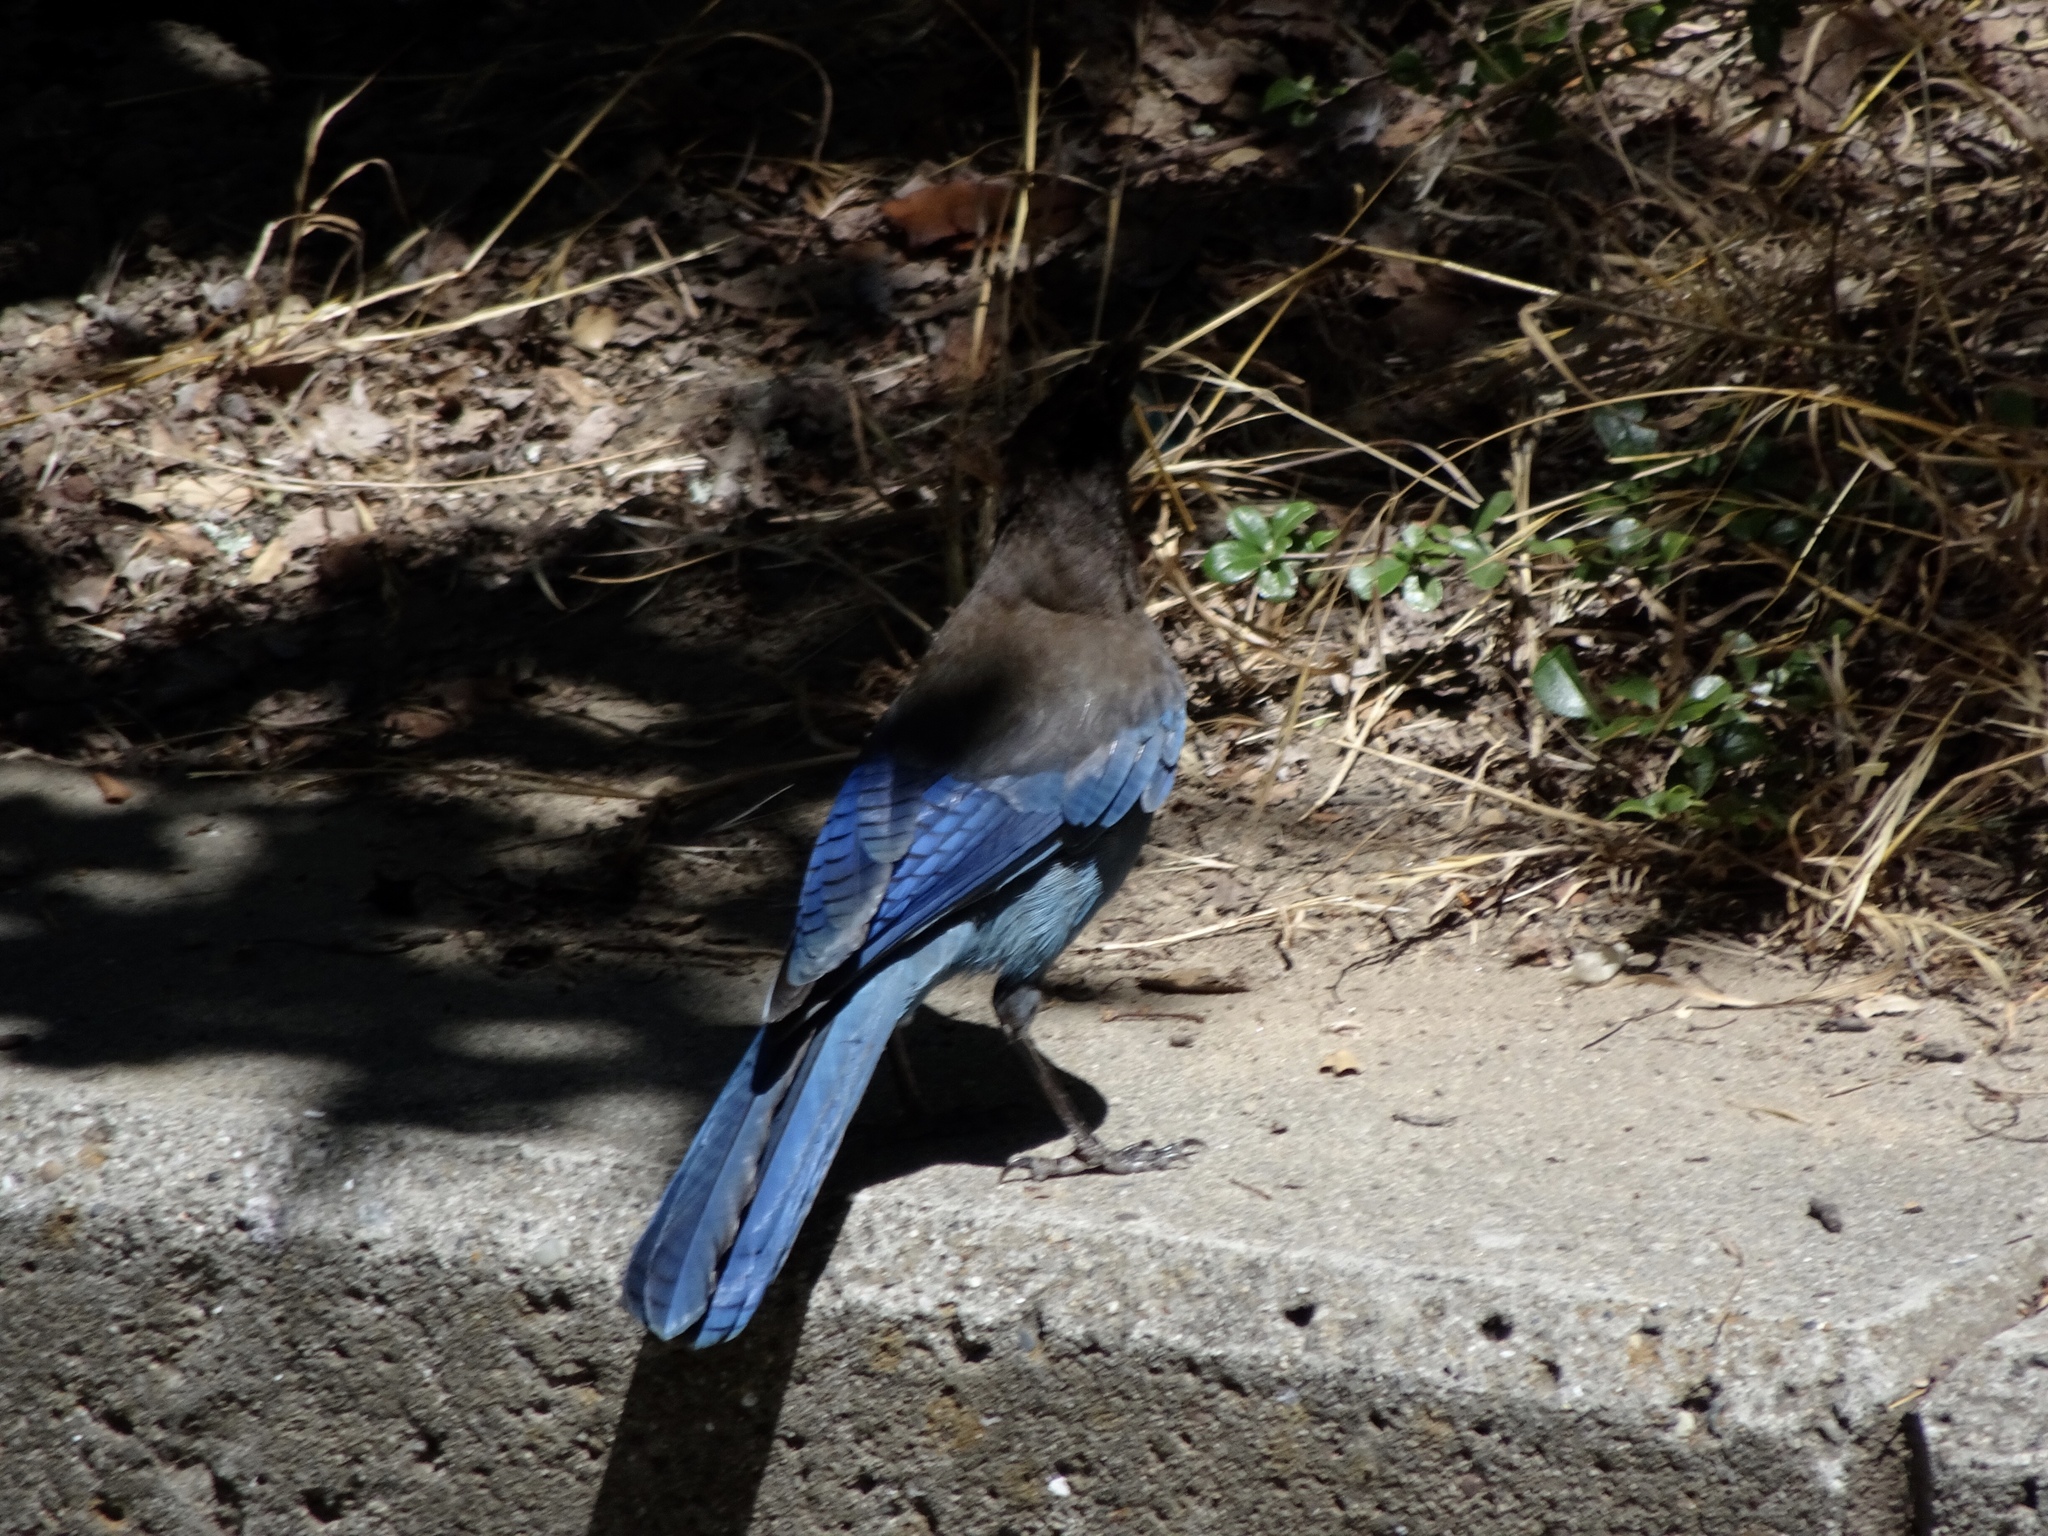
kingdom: Animalia
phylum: Chordata
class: Aves
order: Passeriformes
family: Corvidae
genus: Cyanocitta
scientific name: Cyanocitta stelleri
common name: Steller's jay
